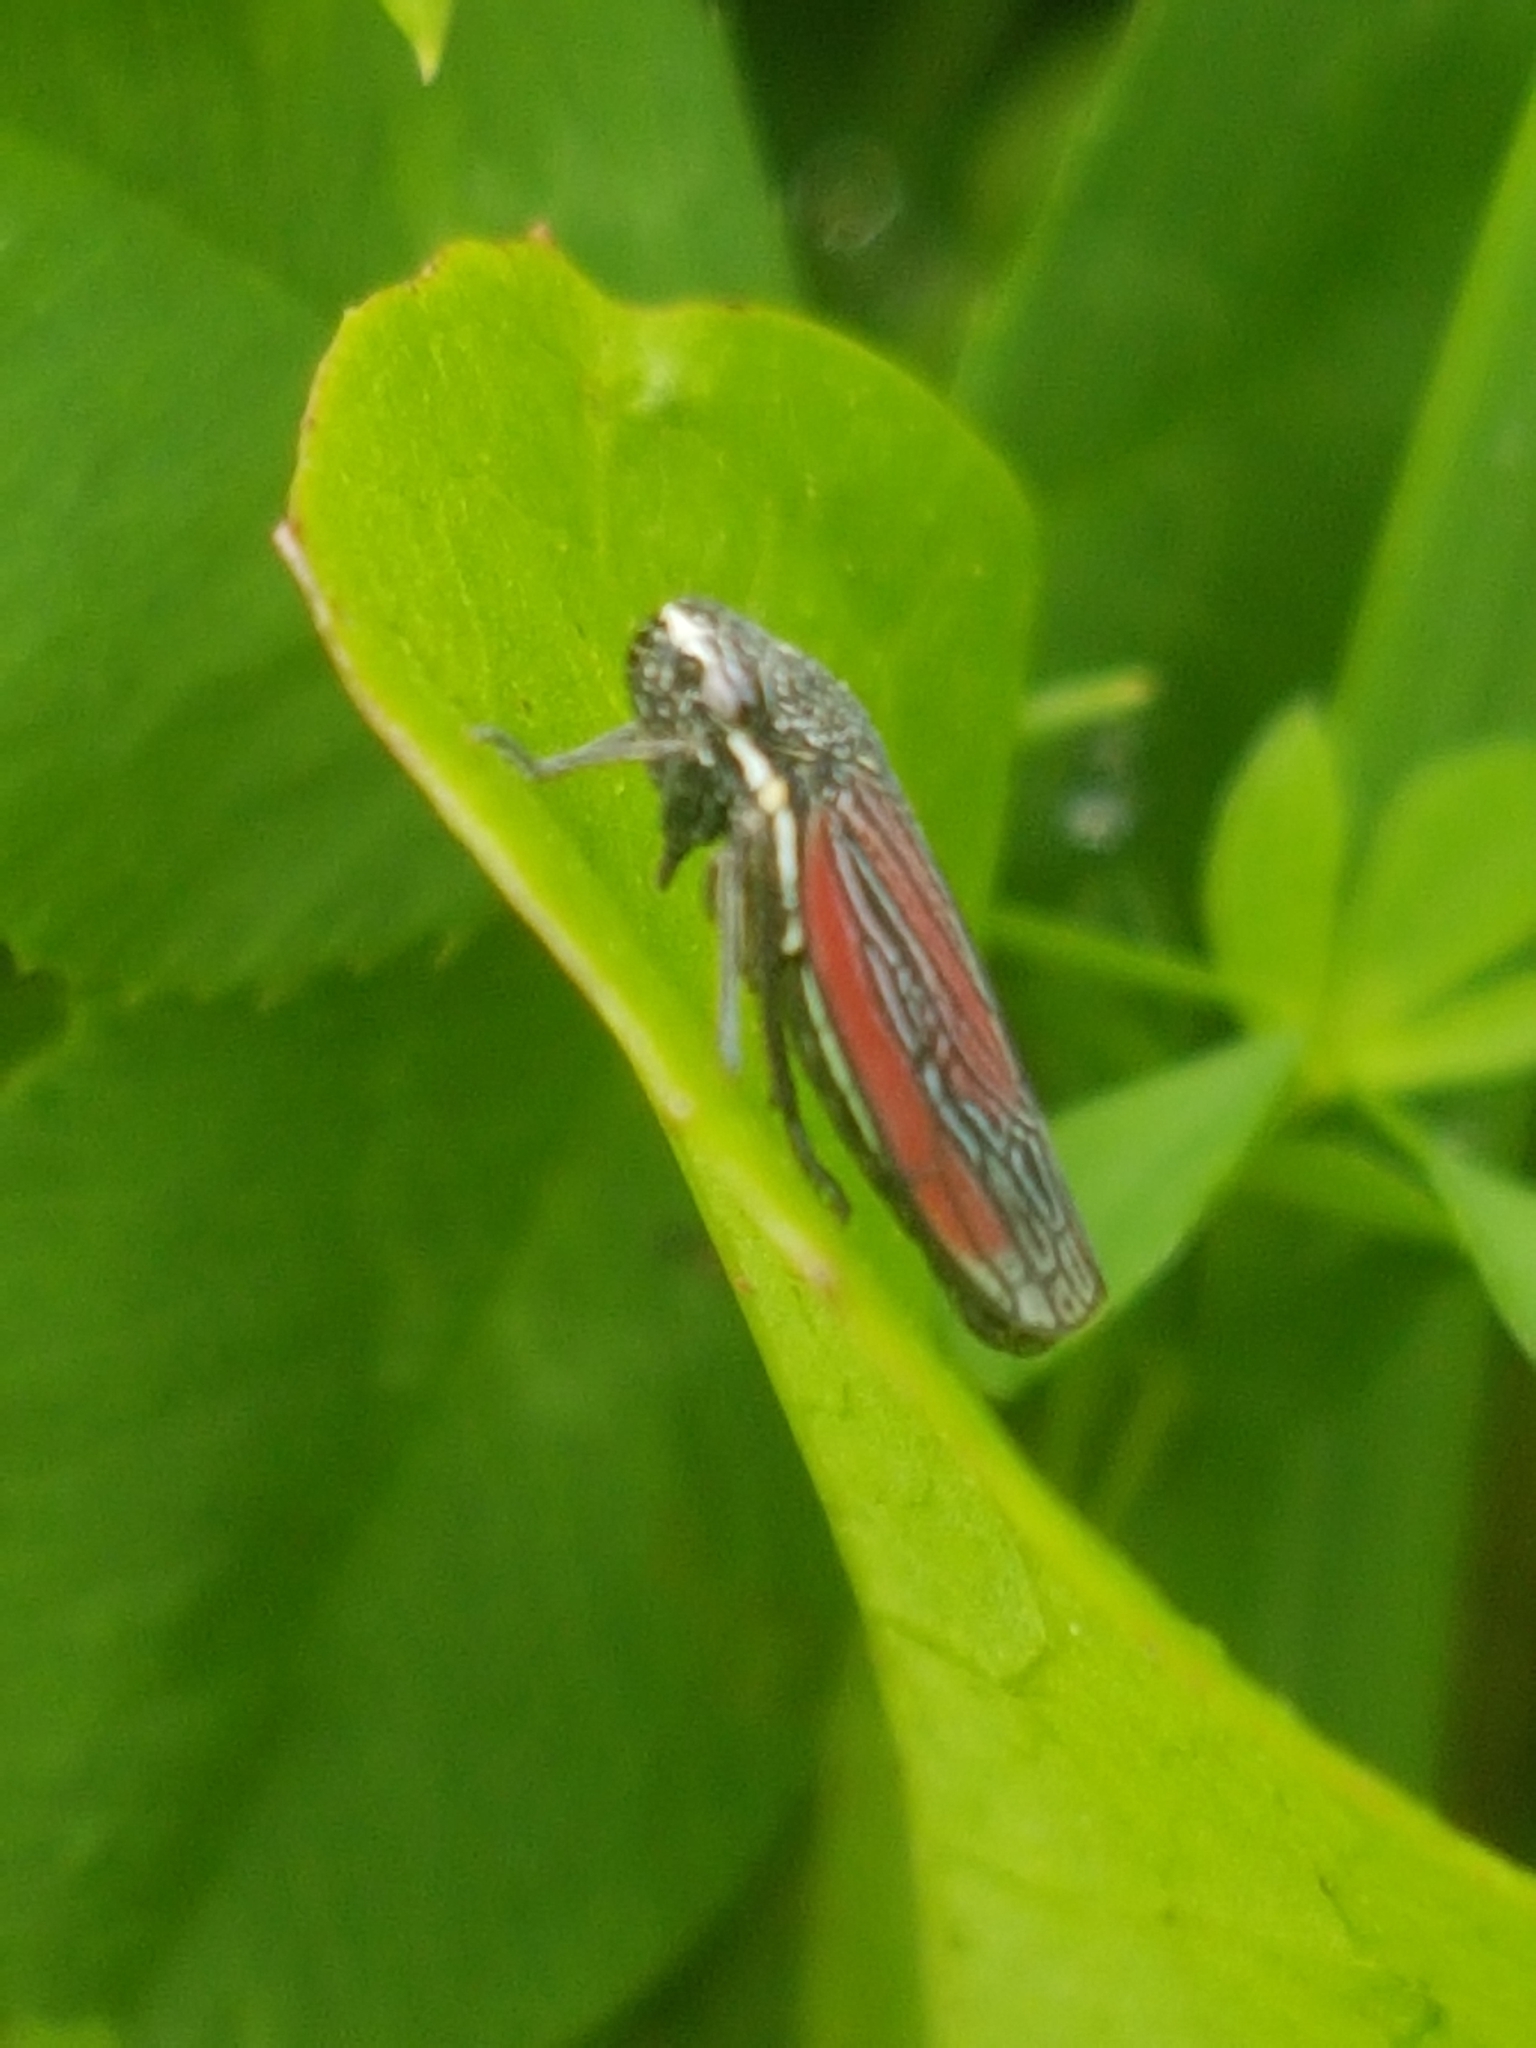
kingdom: Animalia
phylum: Arthropoda
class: Insecta
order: Hemiptera
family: Cicadellidae
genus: Cuerna
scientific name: Cuerna striata
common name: Striped leafhopper
